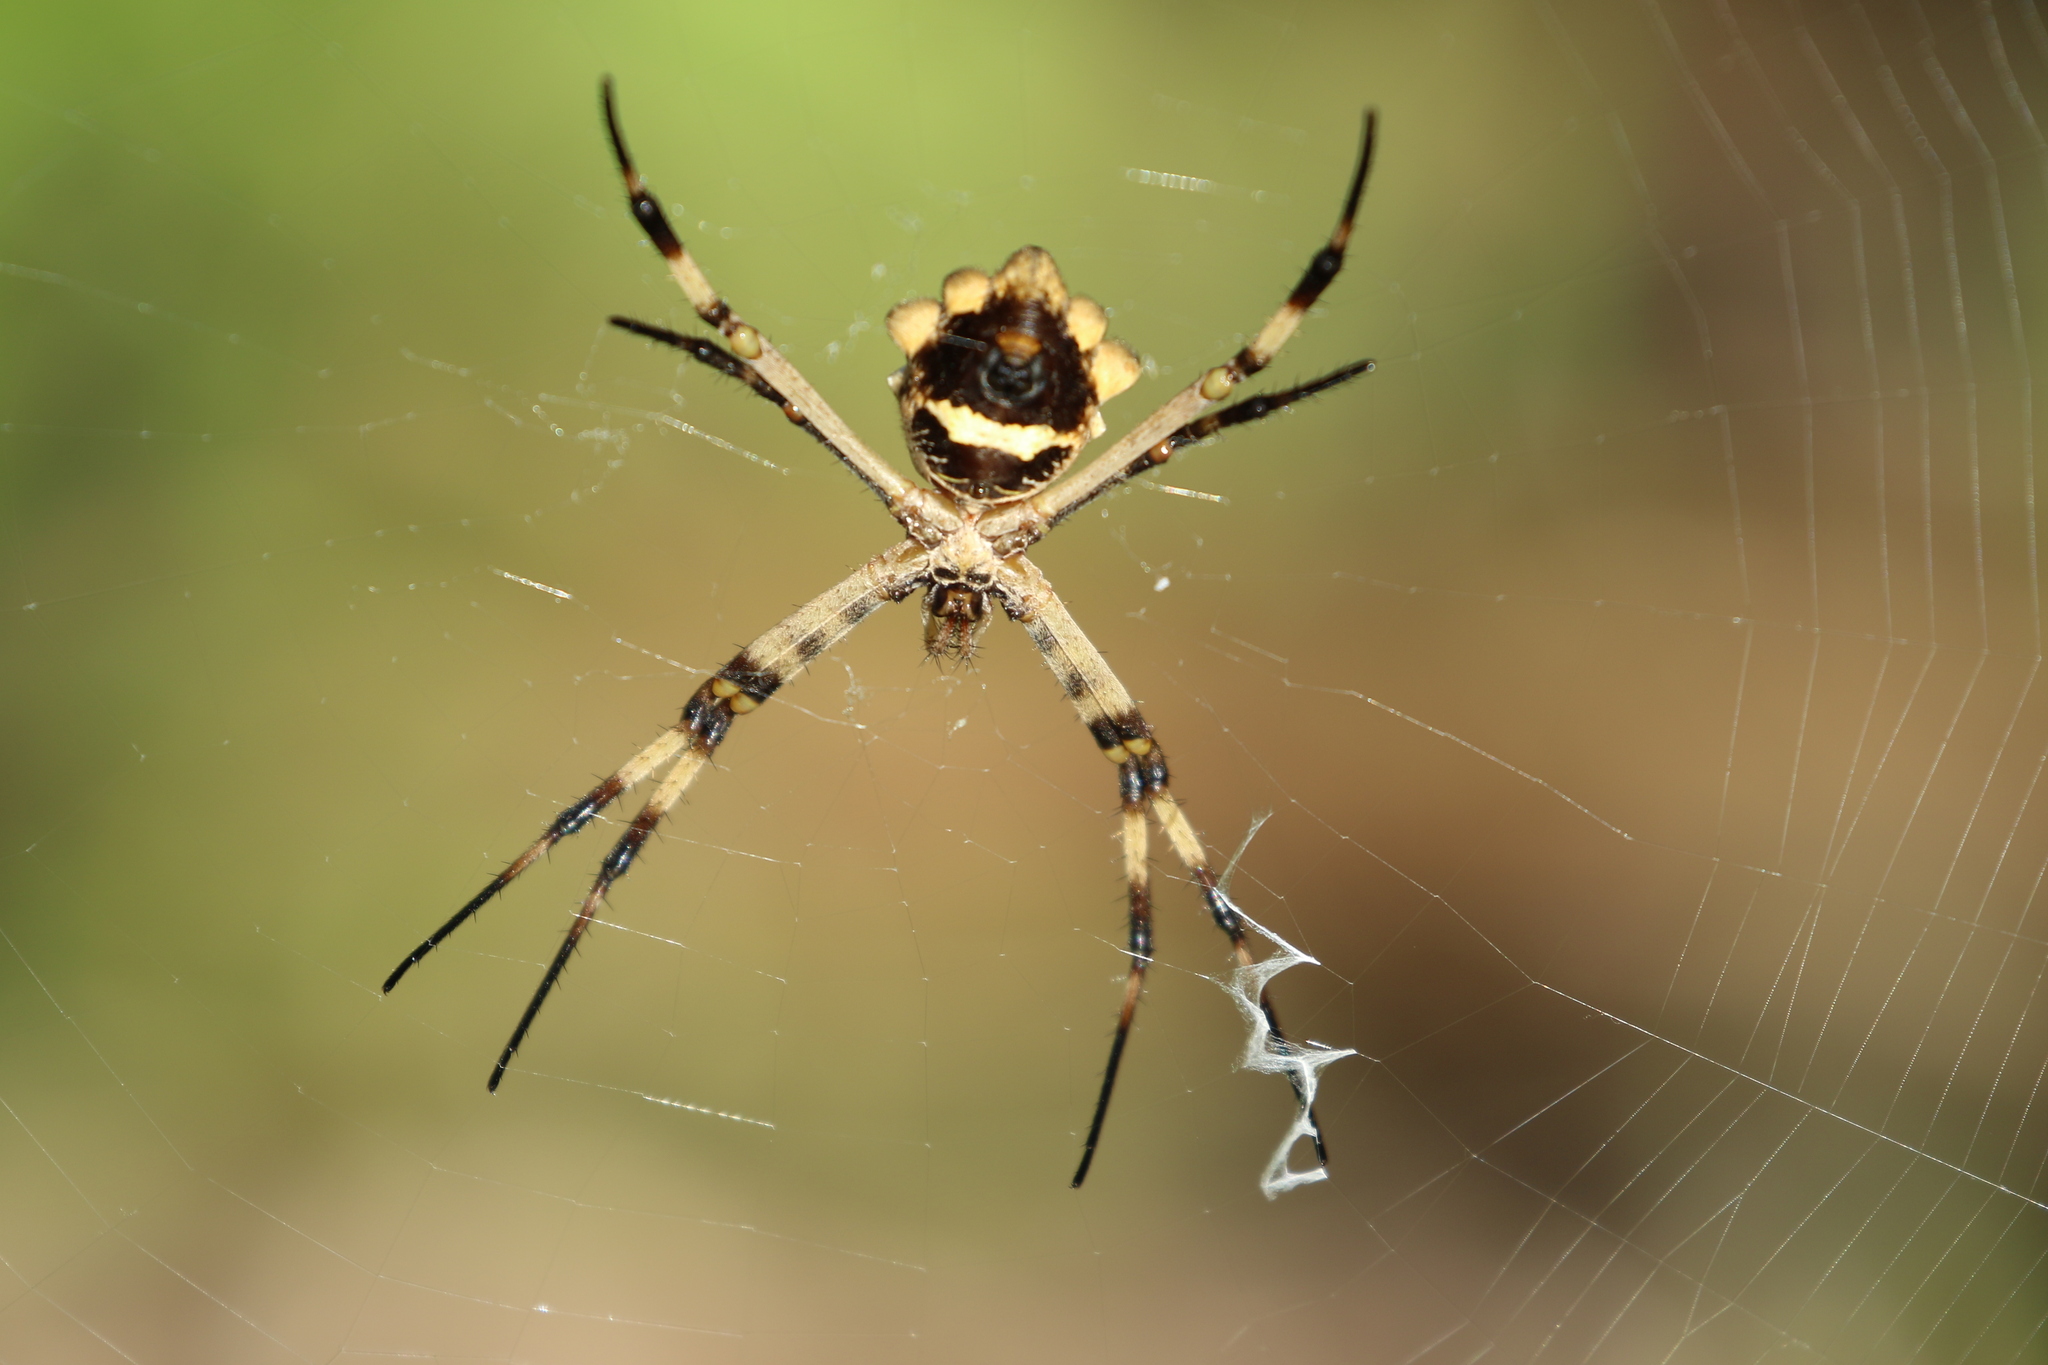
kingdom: Animalia
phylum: Arthropoda
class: Arachnida
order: Araneae
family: Araneidae
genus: Argiope
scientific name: Argiope argentata
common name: Orb weavers
